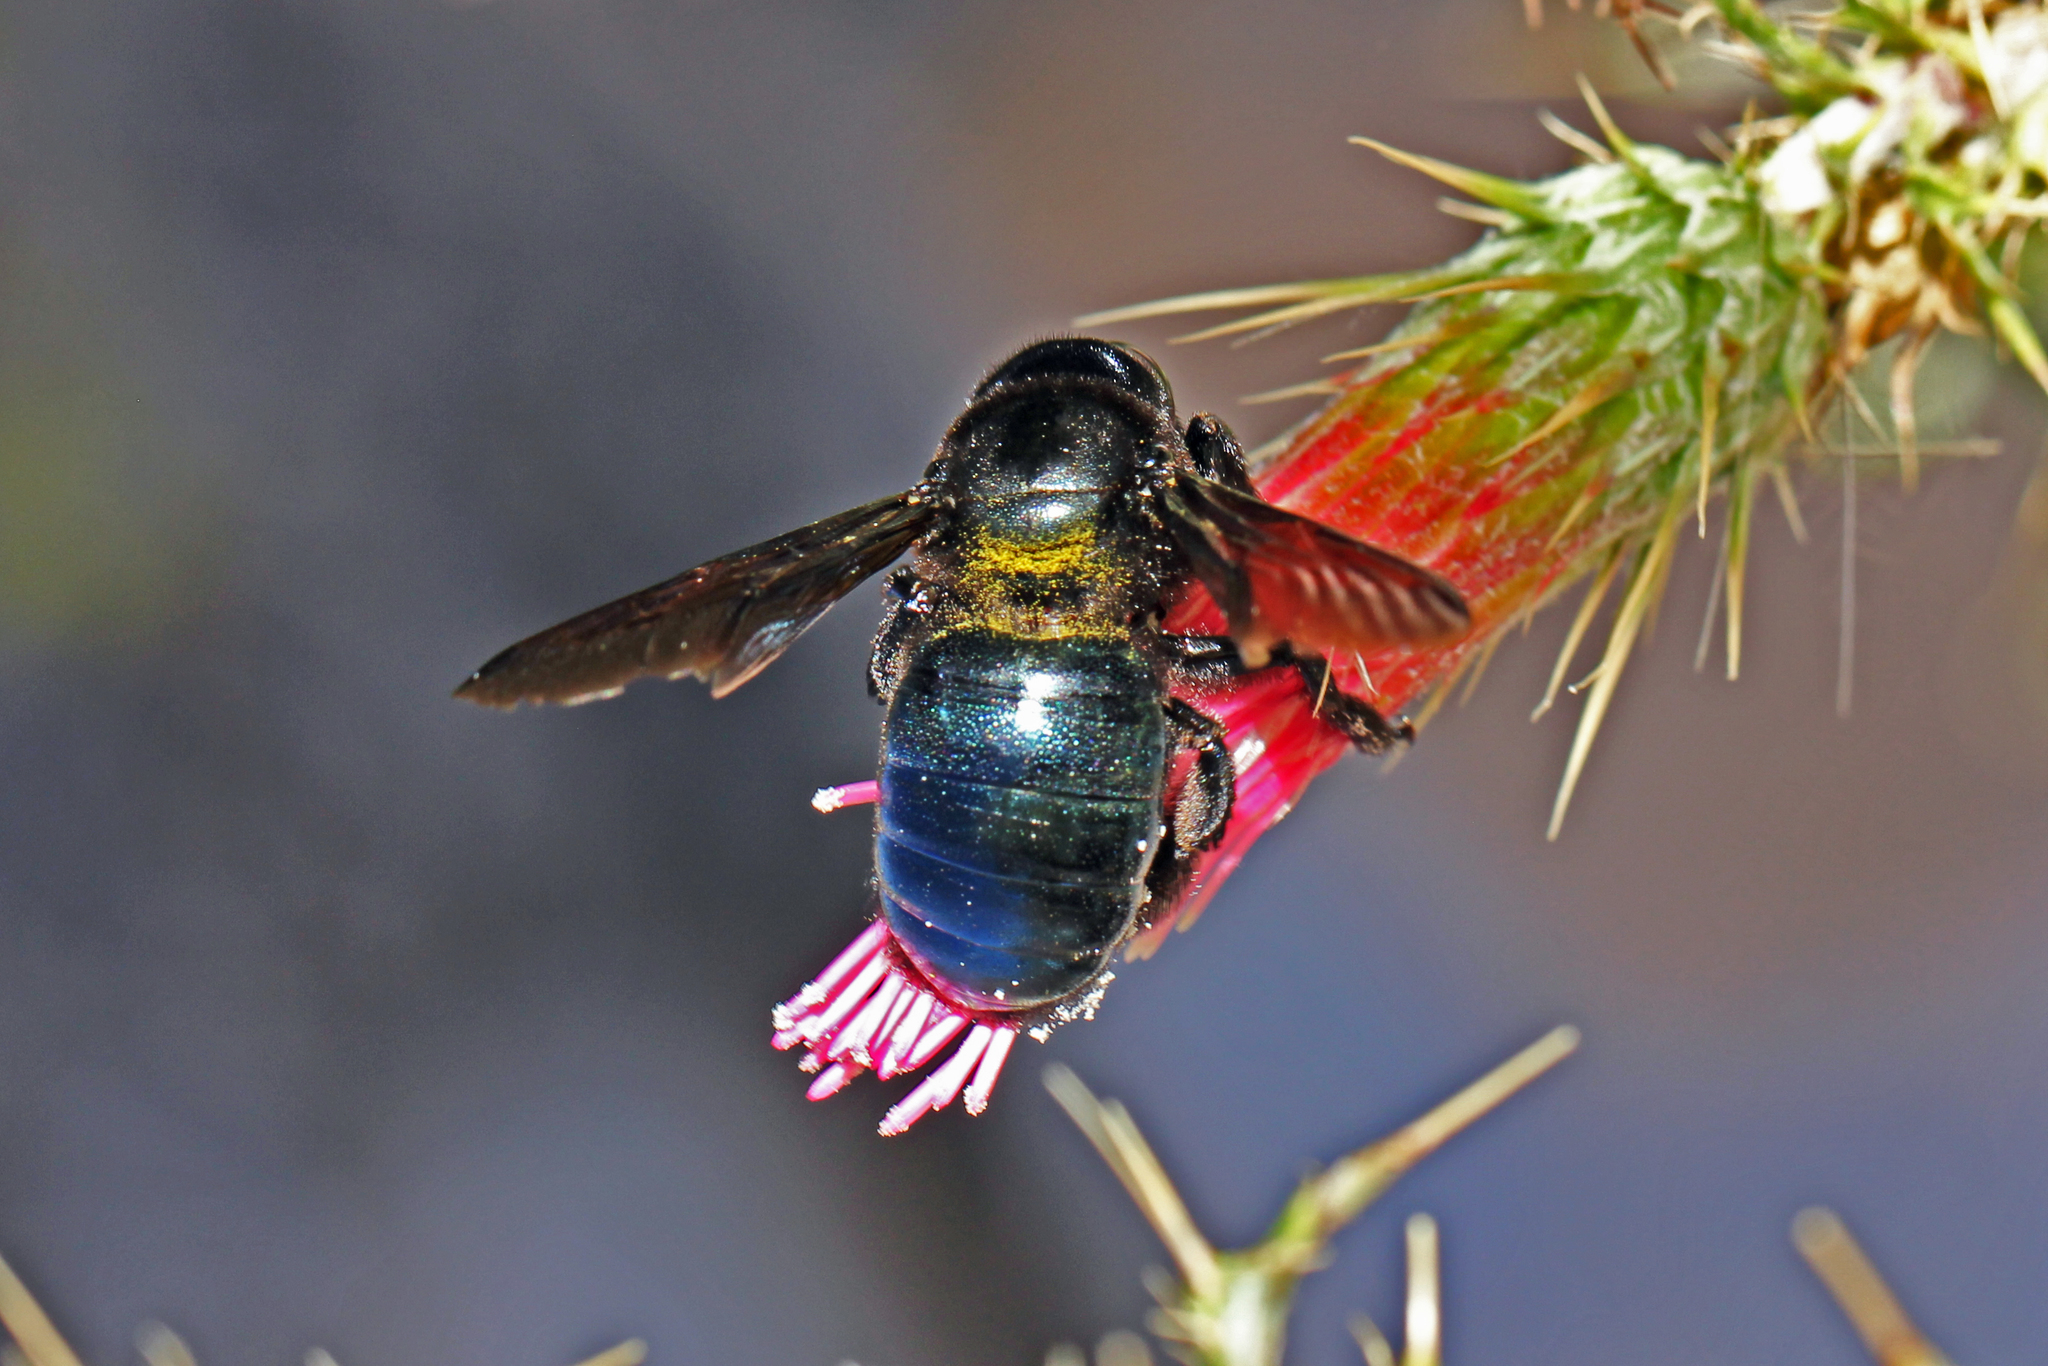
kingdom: Animalia
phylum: Arthropoda
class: Insecta
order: Hymenoptera
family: Apidae
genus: Xylocopa
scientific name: Xylocopa californica
